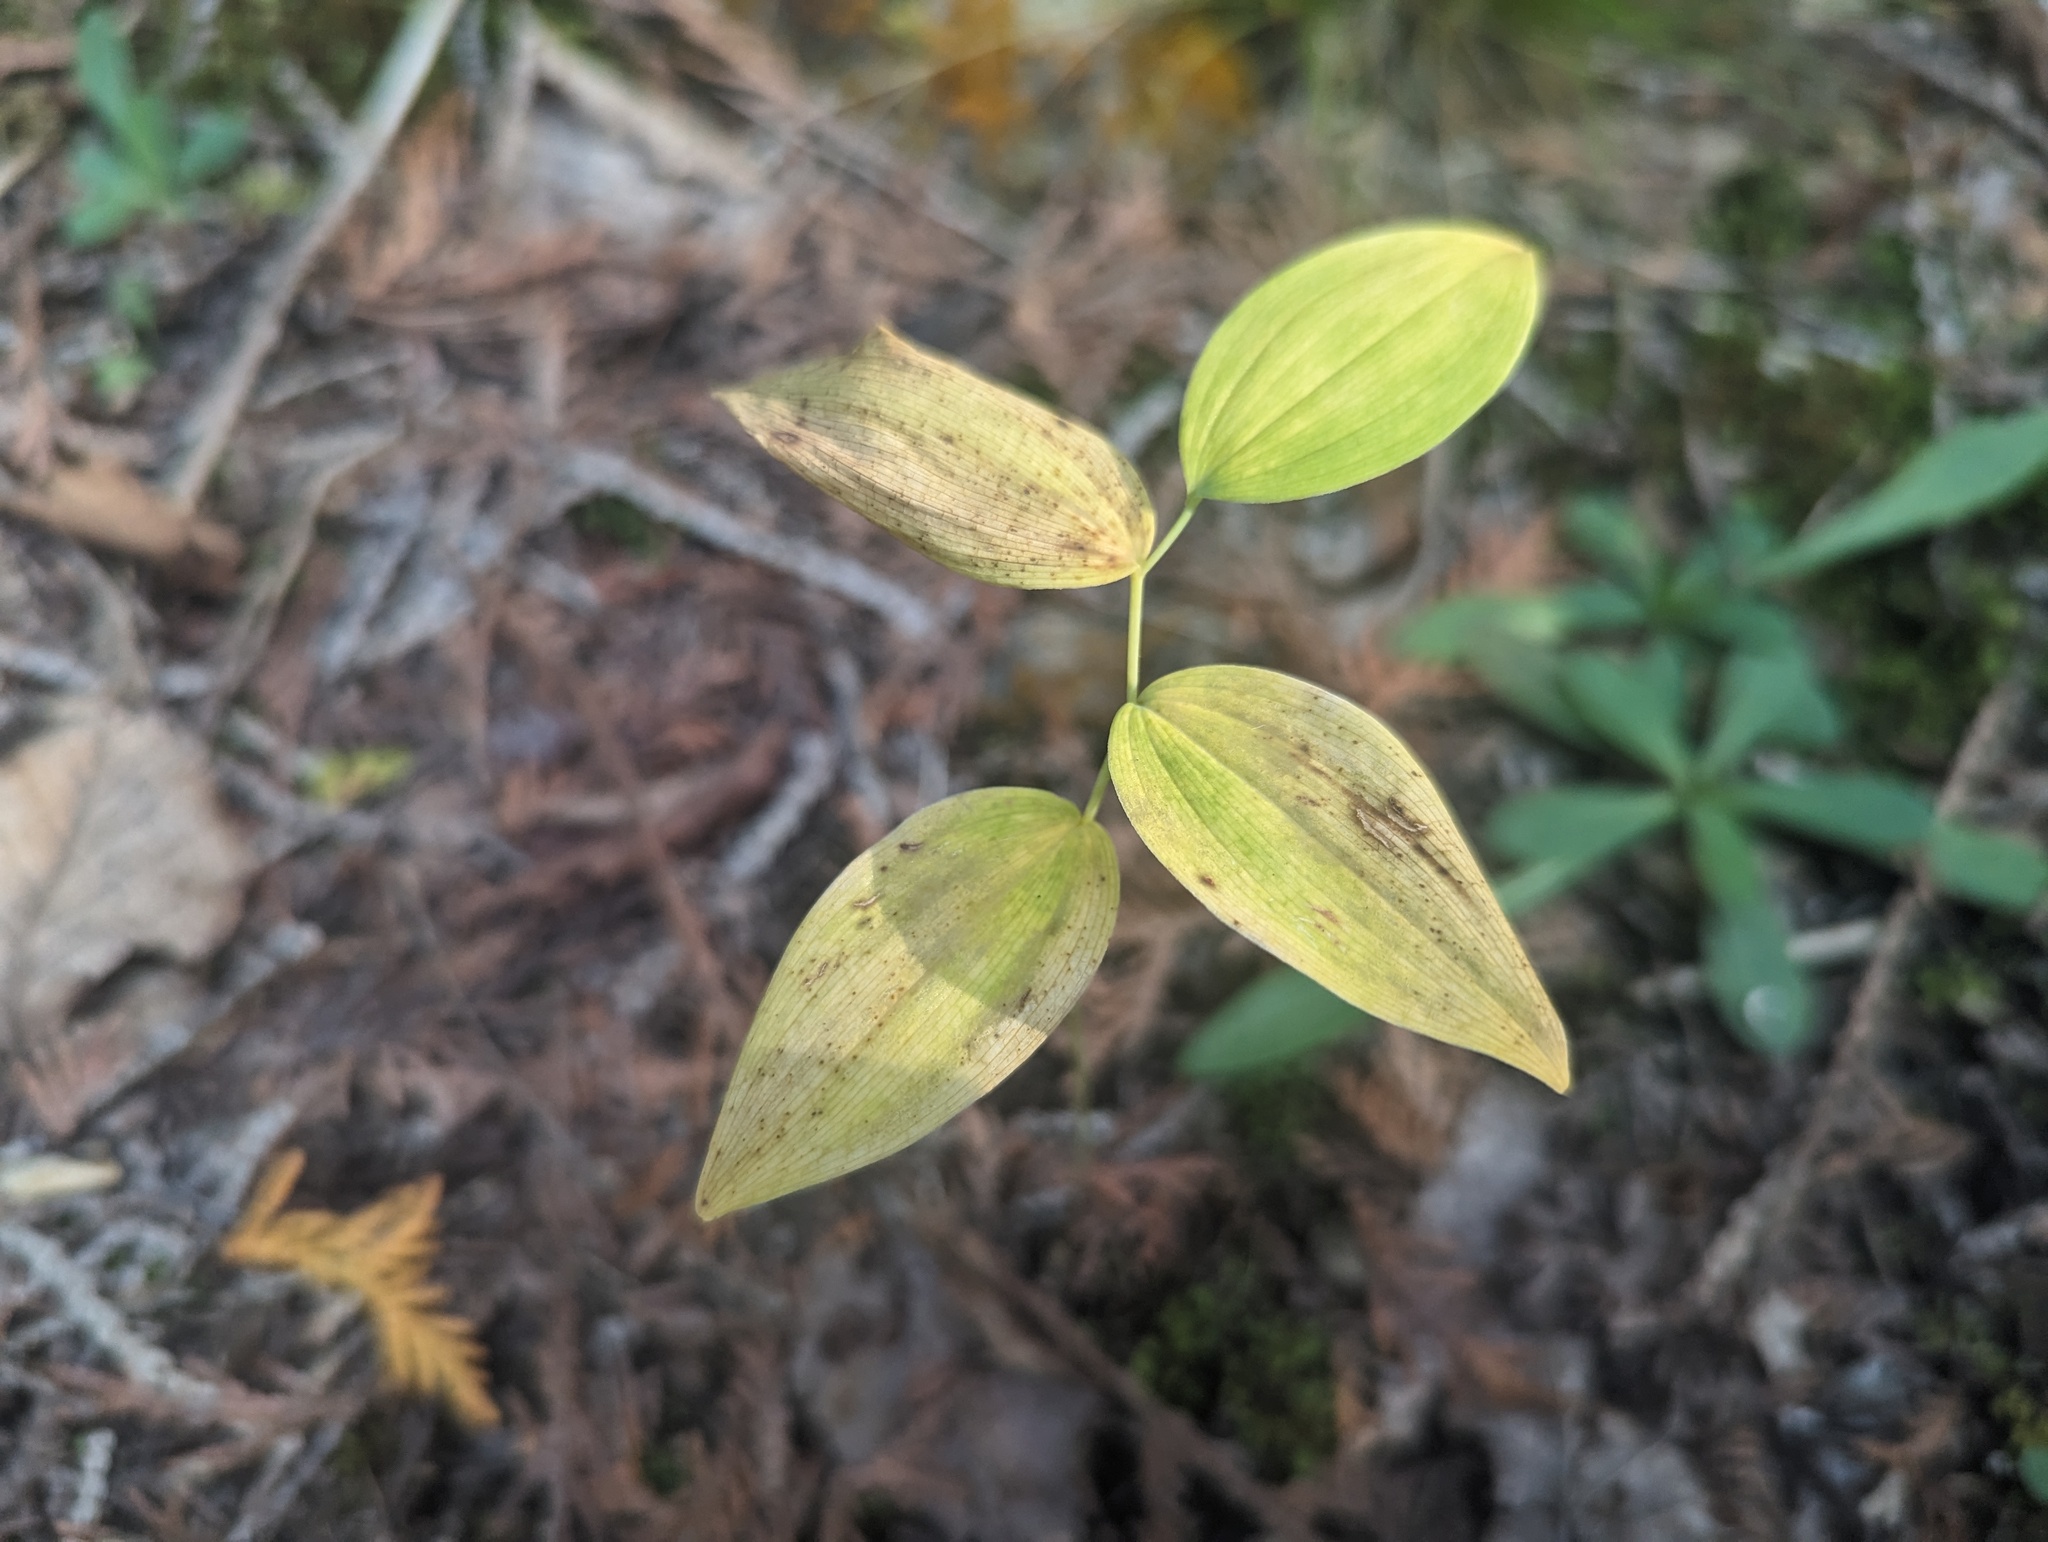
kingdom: Plantae
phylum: Tracheophyta
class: Liliopsida
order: Asparagales
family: Asparagaceae
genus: Polygonatum
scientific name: Polygonatum pubescens
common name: Downy solomon's seal
